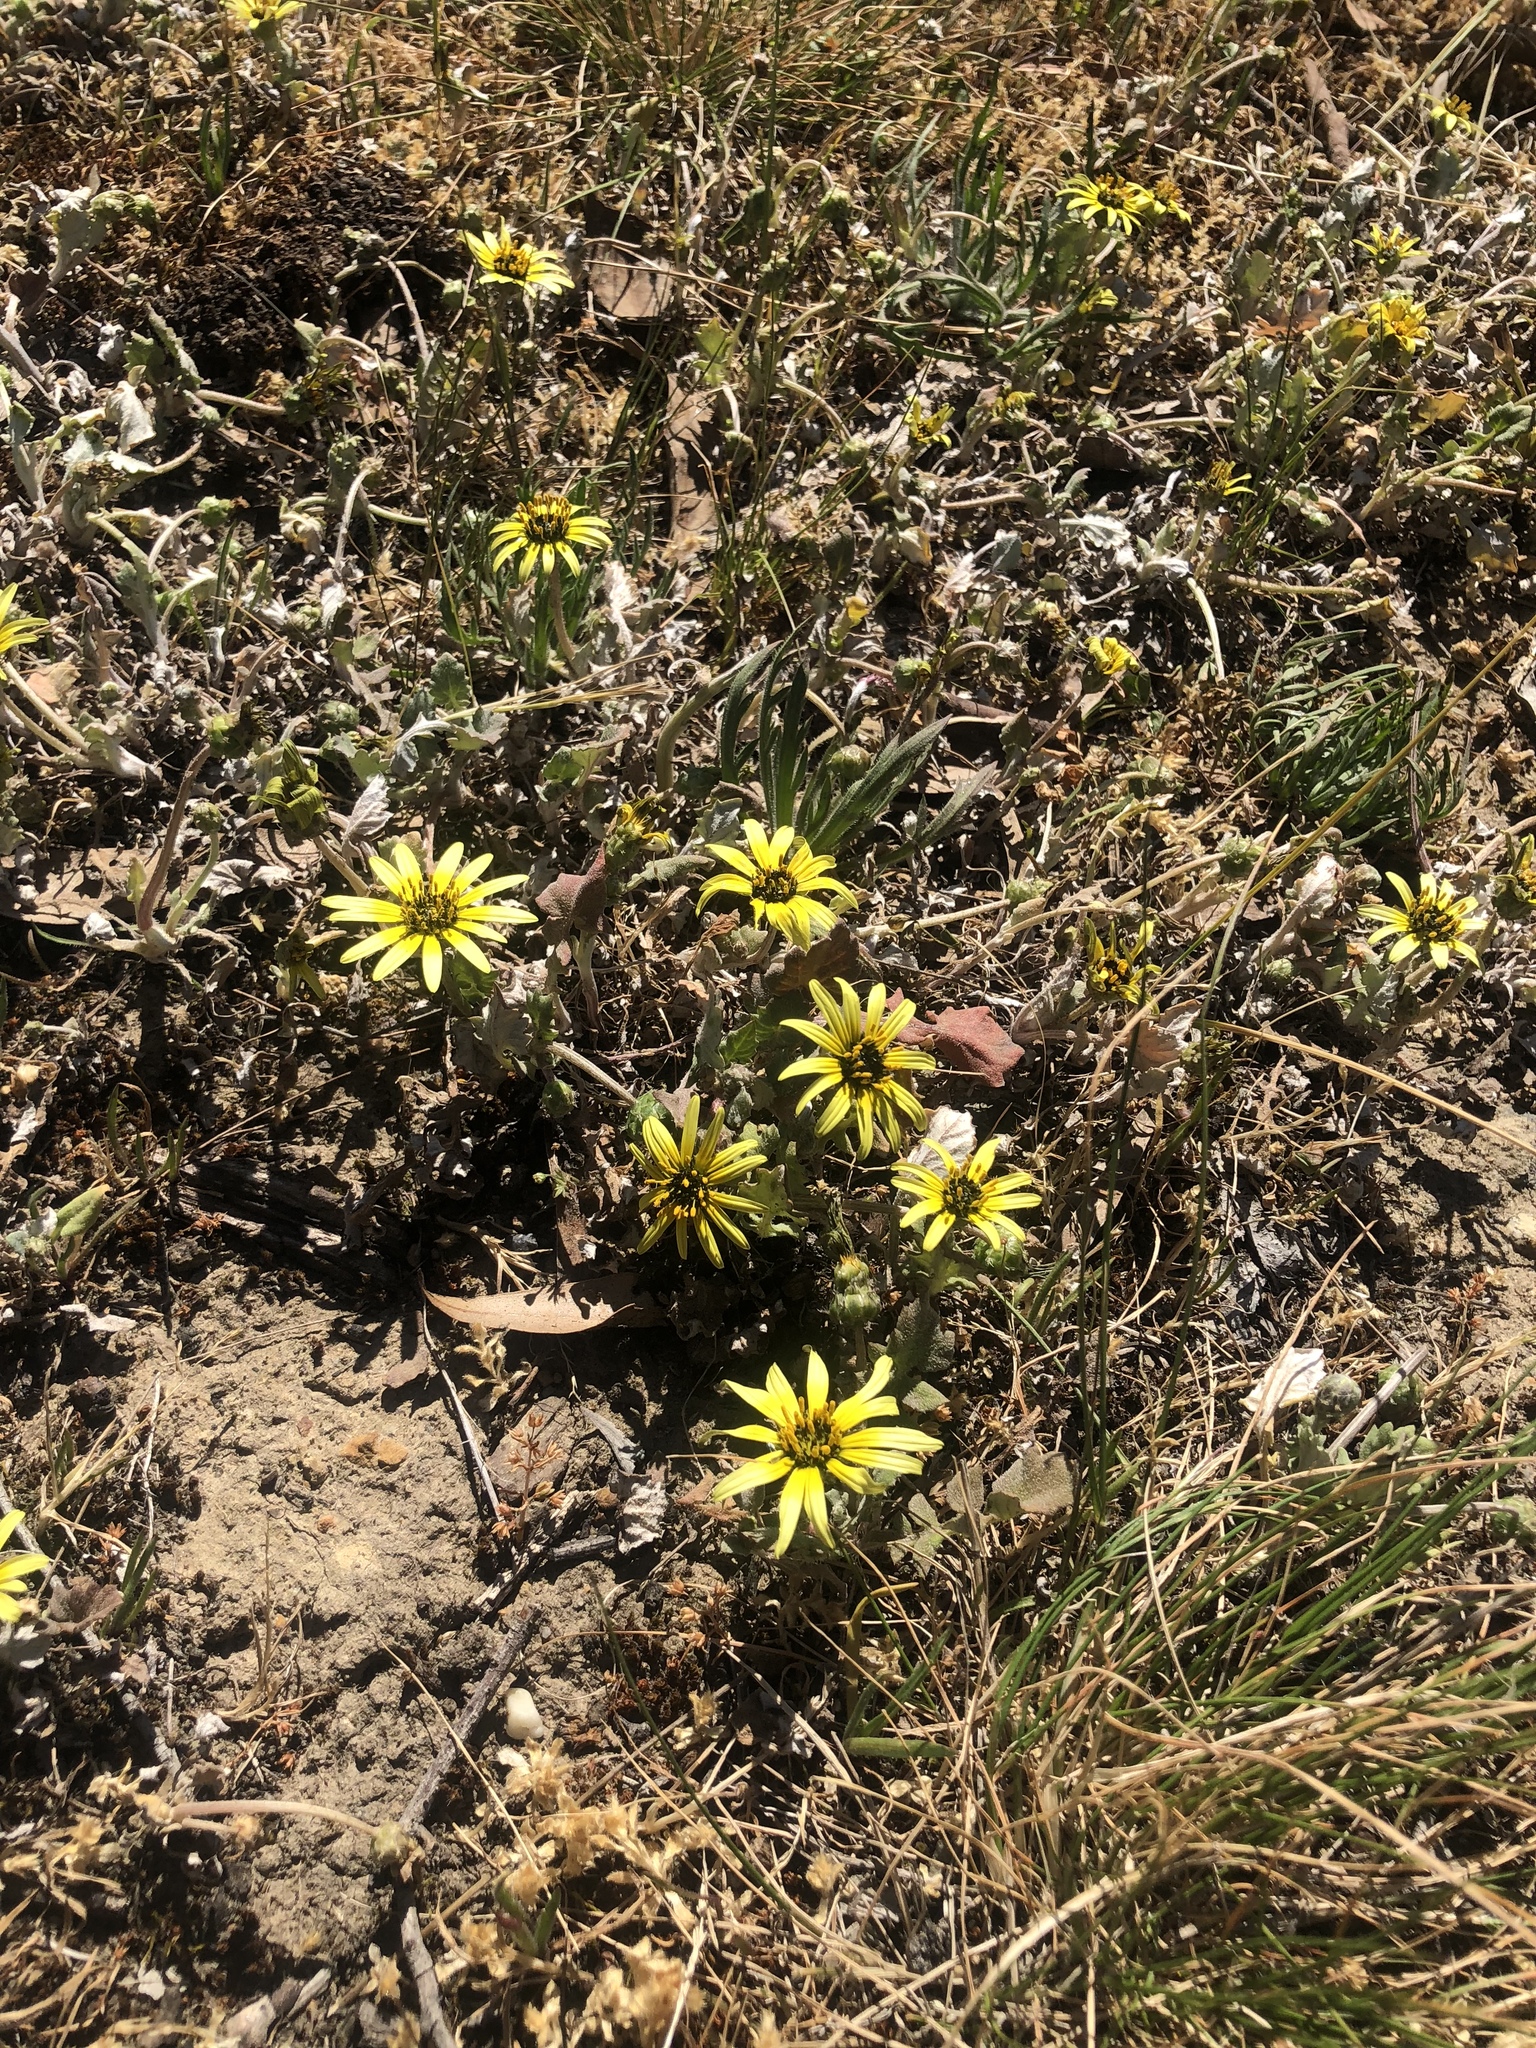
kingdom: Plantae
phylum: Tracheophyta
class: Magnoliopsida
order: Asterales
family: Asteraceae
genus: Arctotheca
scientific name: Arctotheca calendula
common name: Capeweed
